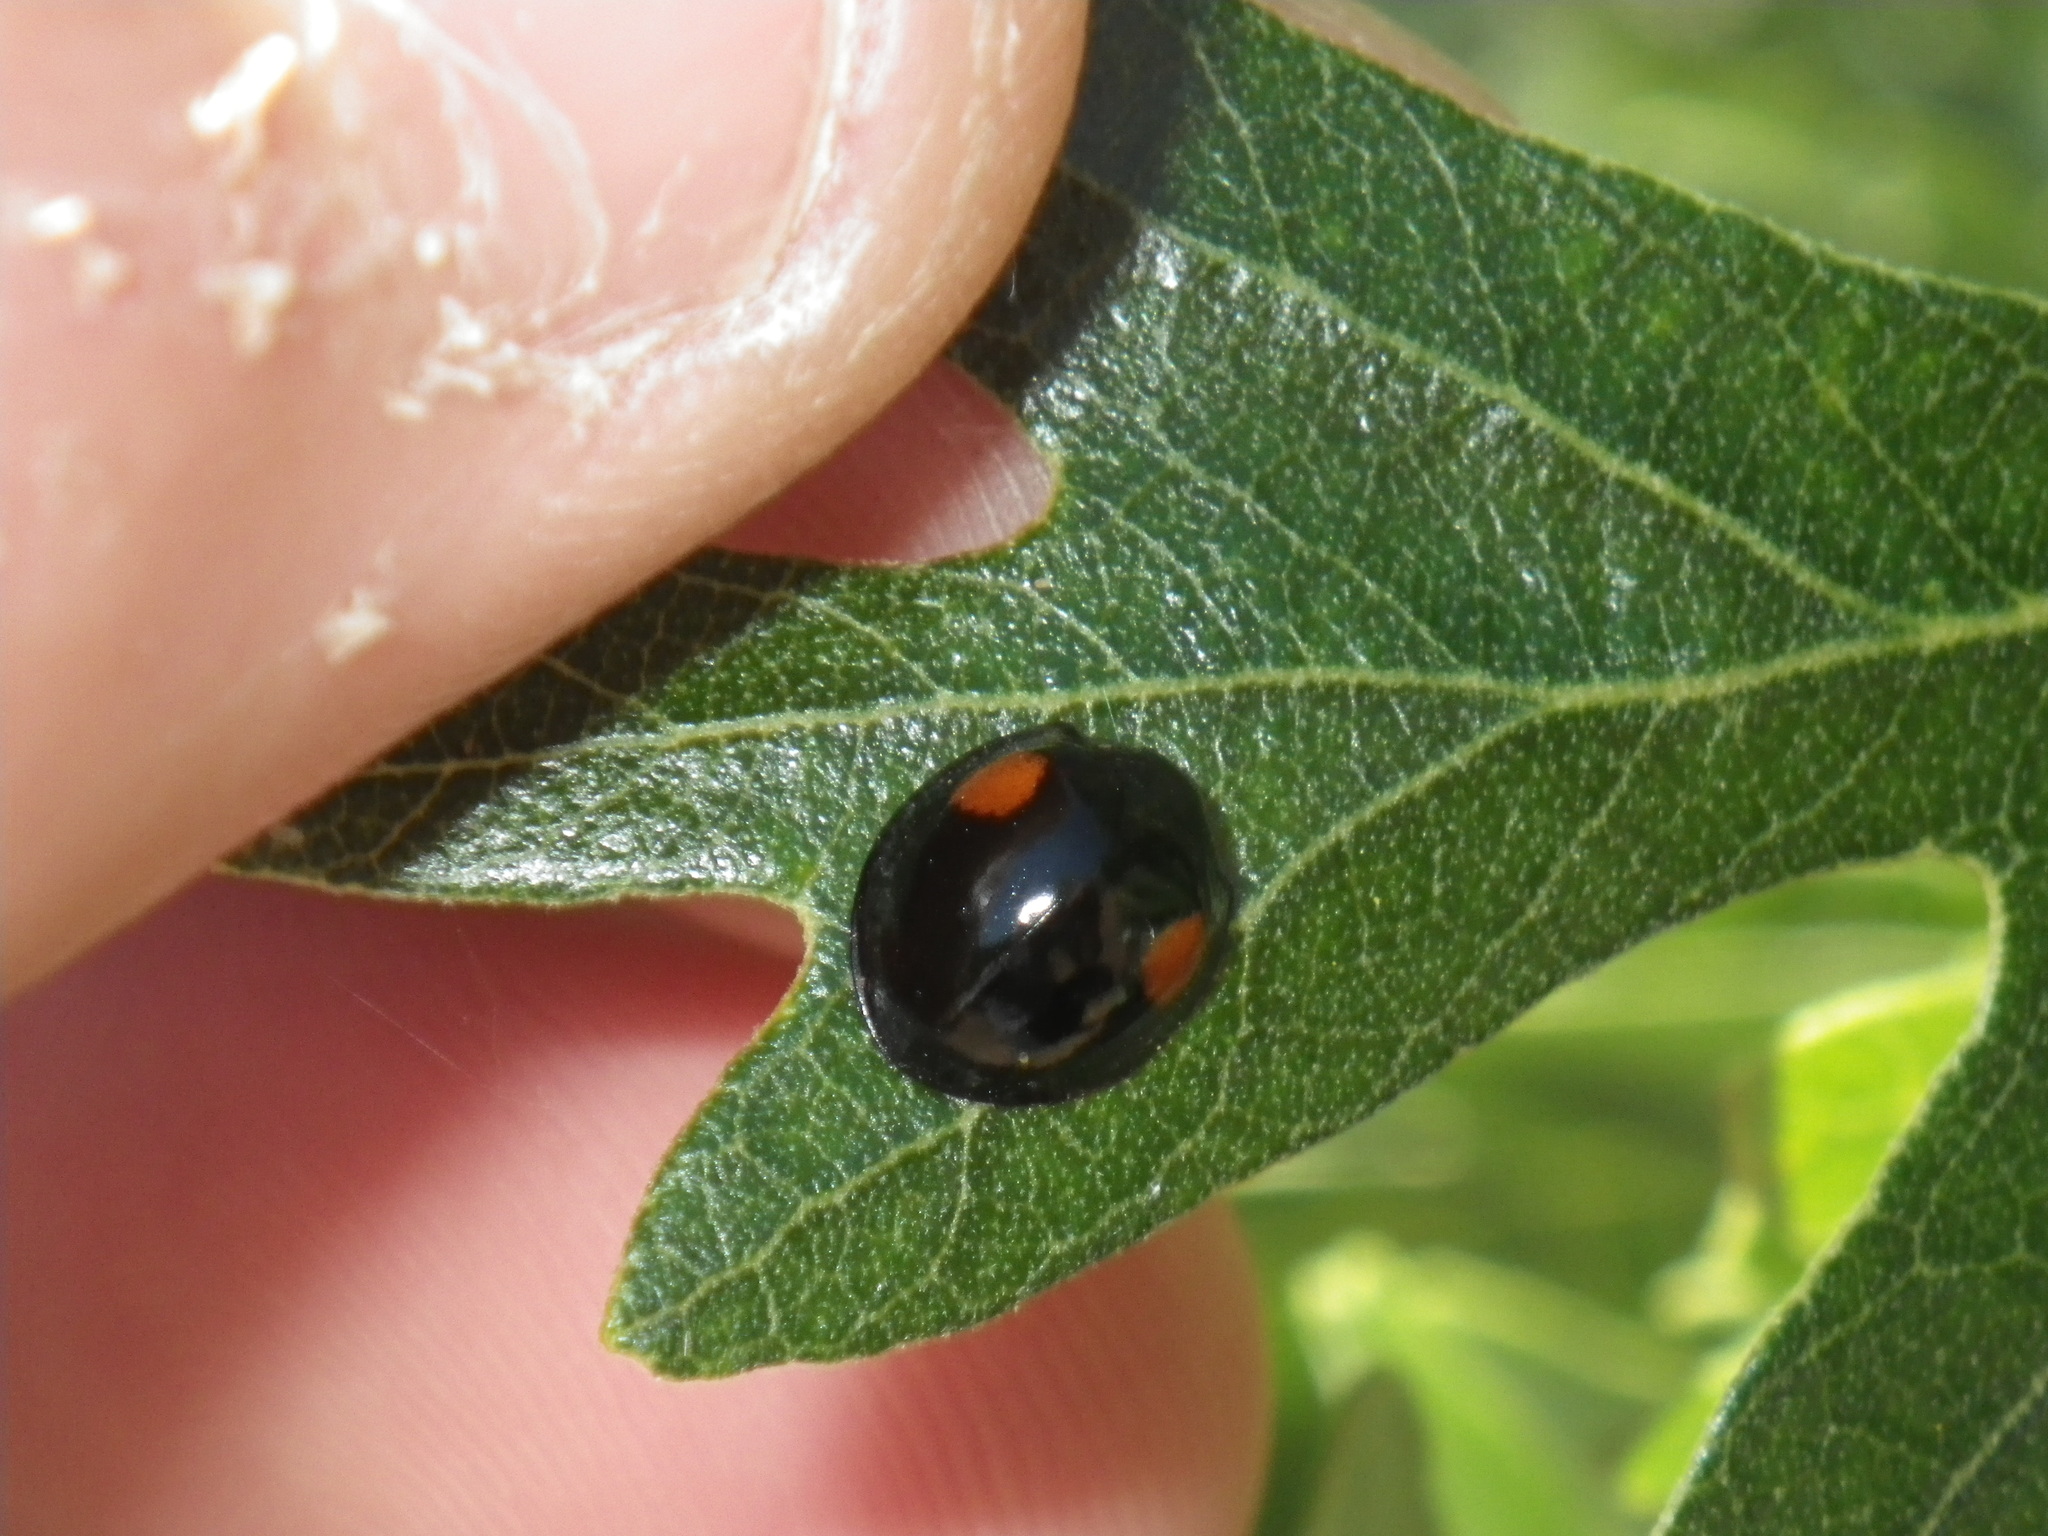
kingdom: Animalia
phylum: Arthropoda
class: Insecta
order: Coleoptera
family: Coccinellidae
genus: Axion
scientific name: Axion plagiatum
